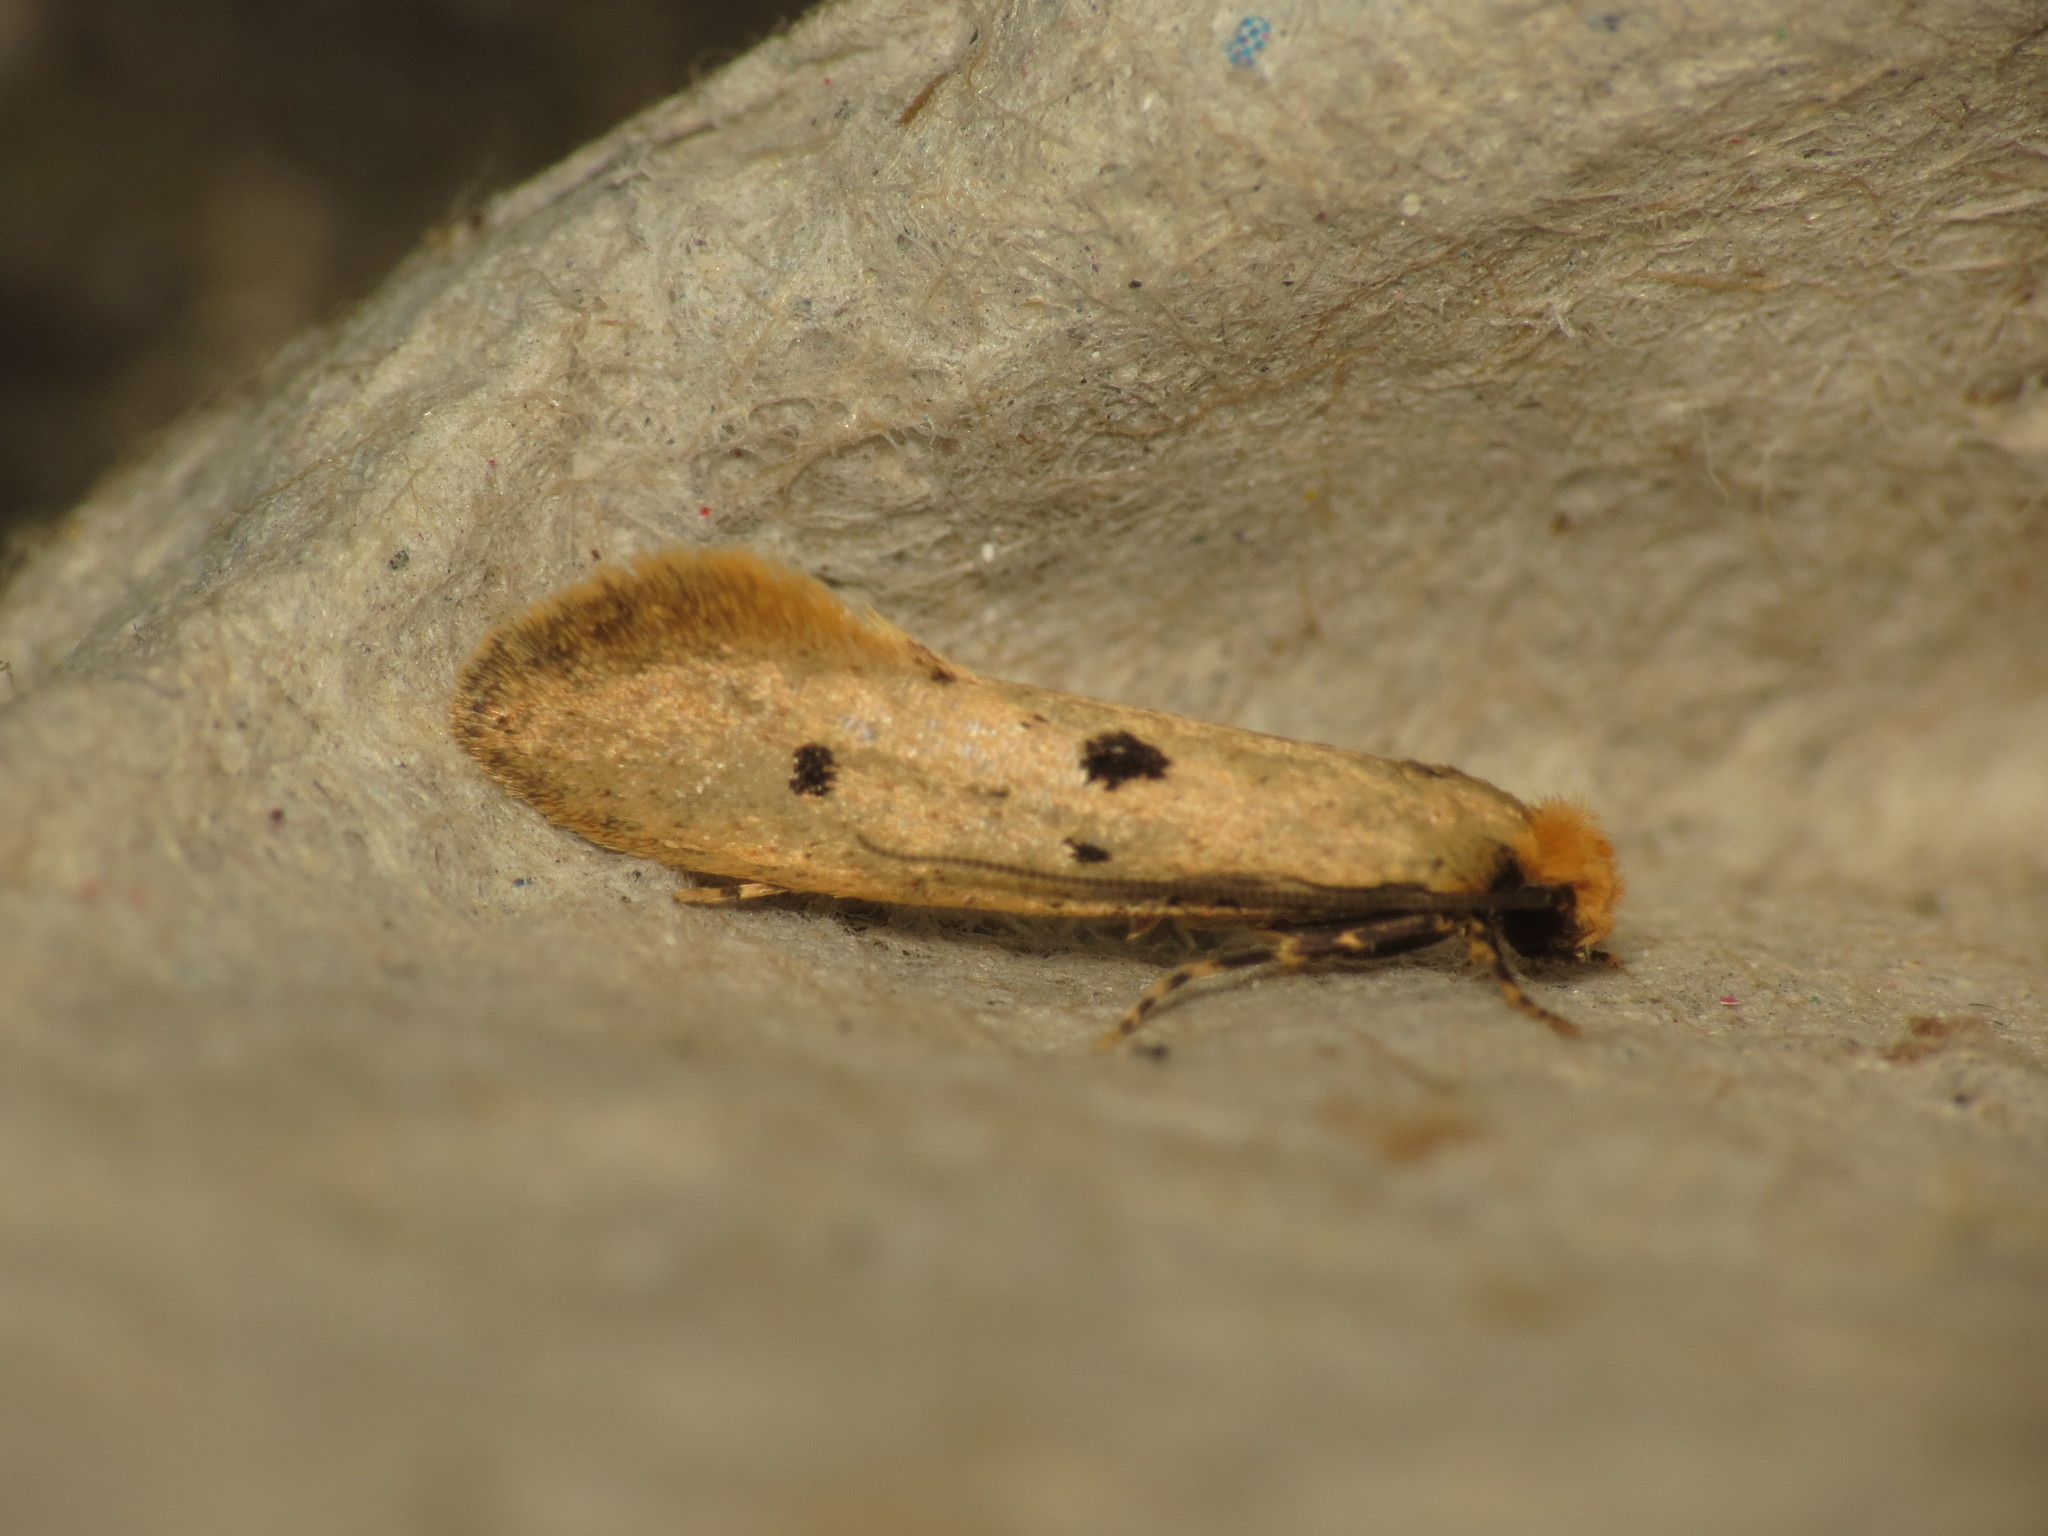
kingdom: Animalia
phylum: Arthropoda
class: Insecta
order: Lepidoptera
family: Tineidae
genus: Tinea
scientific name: Tinea trinotella
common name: Bird's-nest moth
